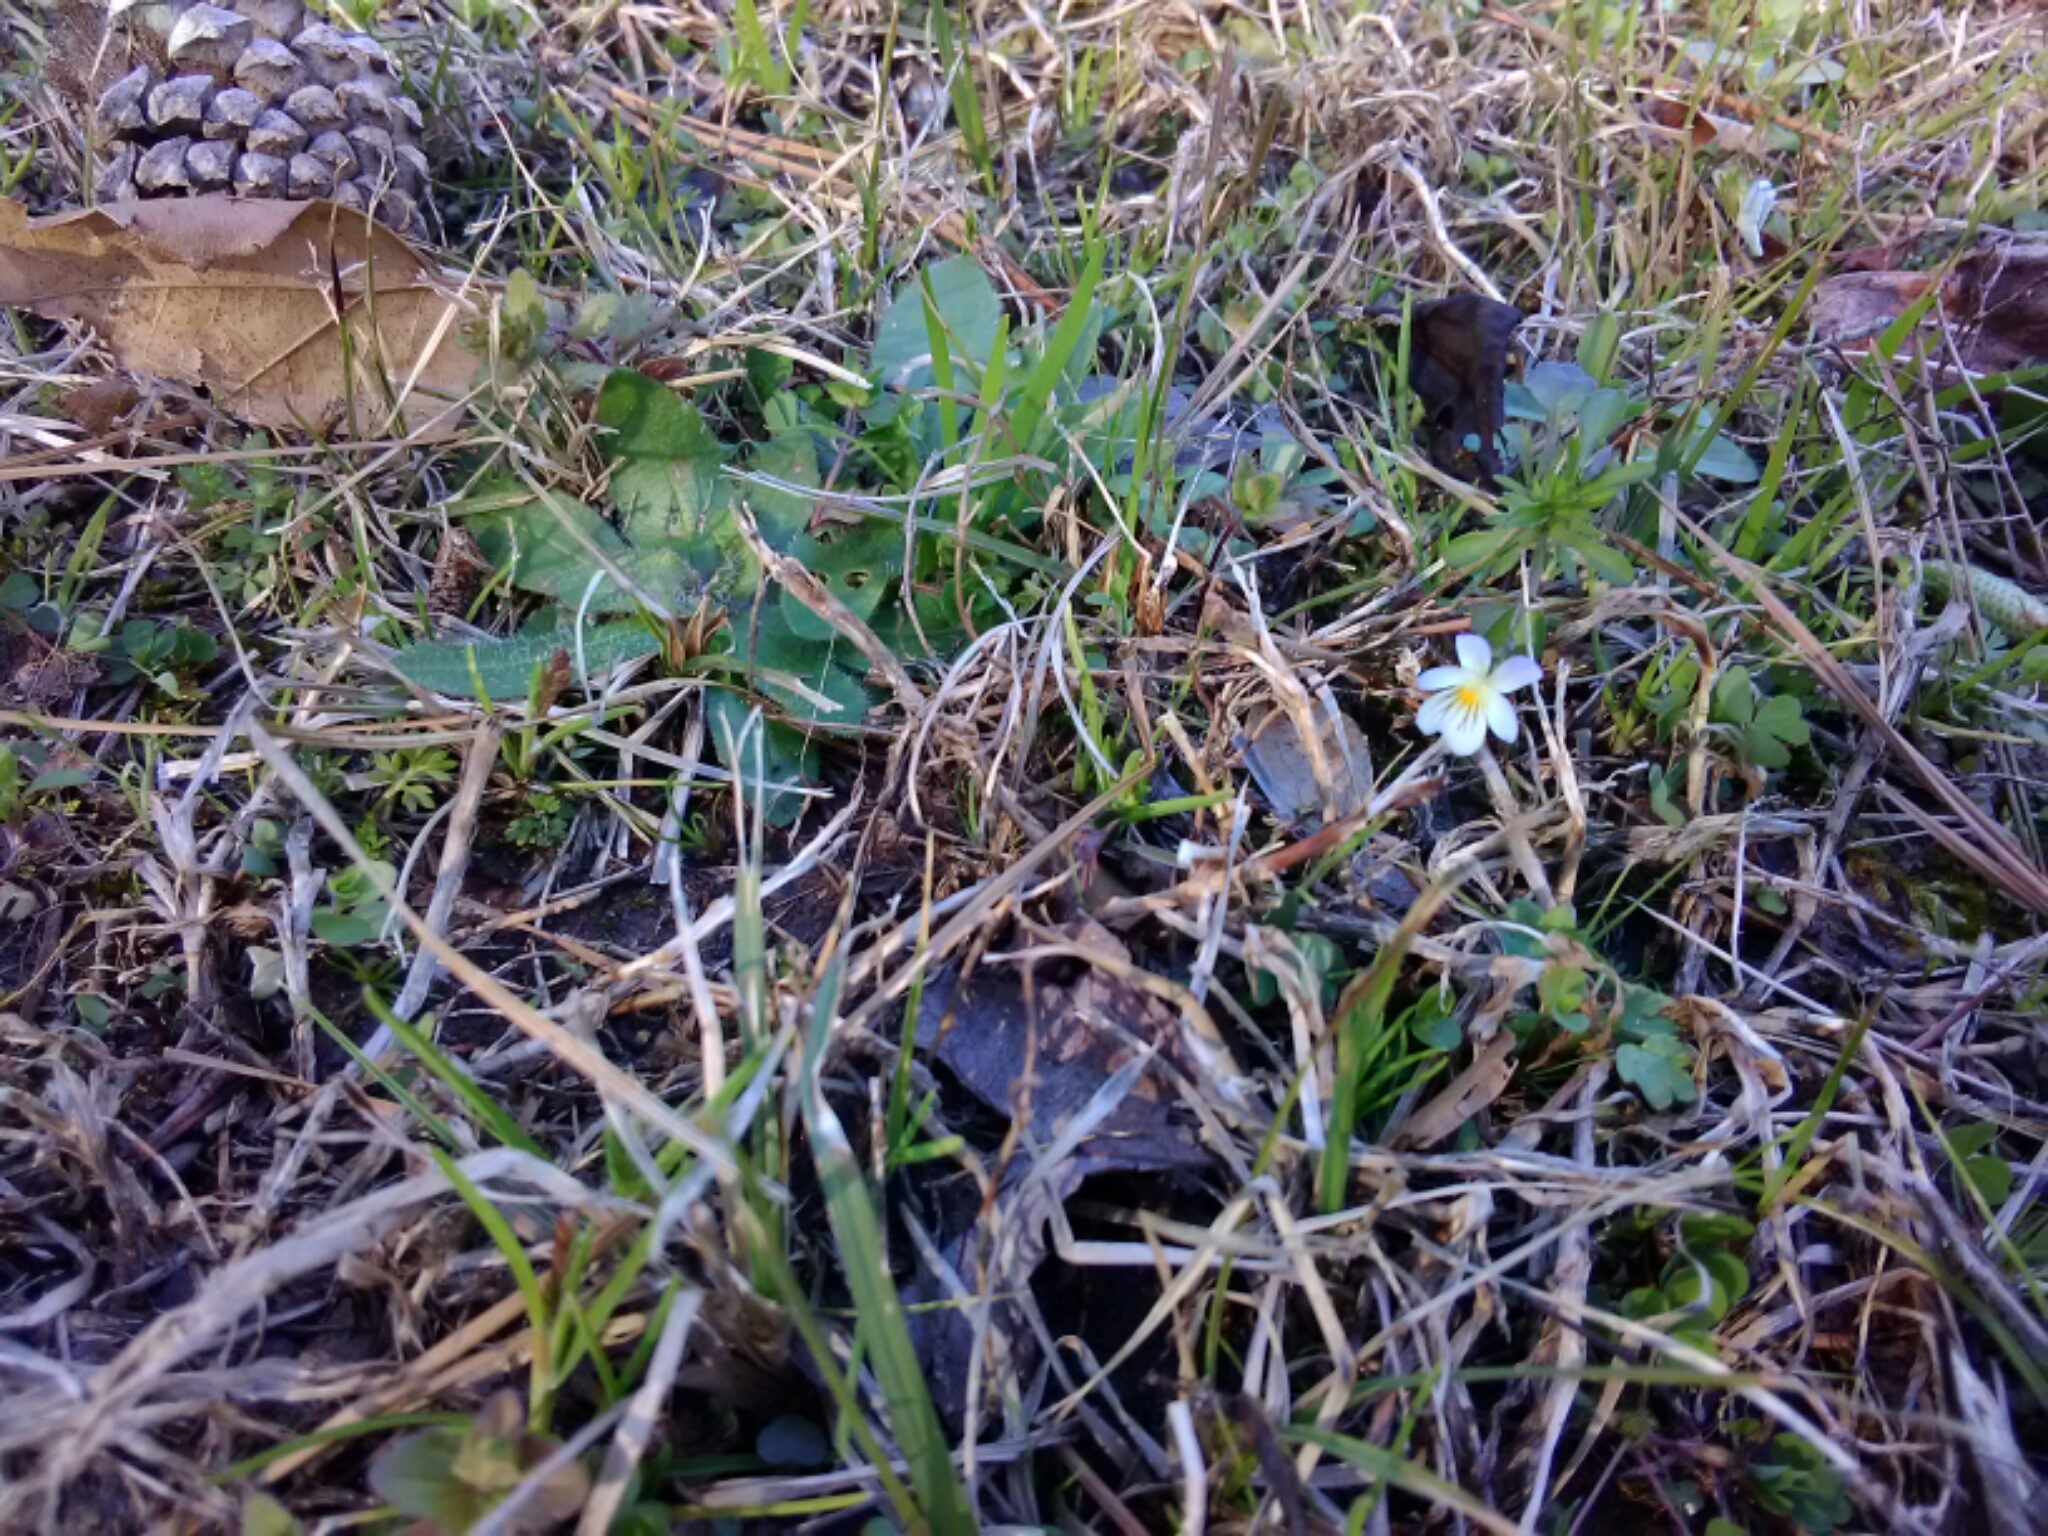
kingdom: Plantae
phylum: Tracheophyta
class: Magnoliopsida
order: Malpighiales
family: Violaceae
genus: Viola
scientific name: Viola rafinesquei
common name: American field pansy
